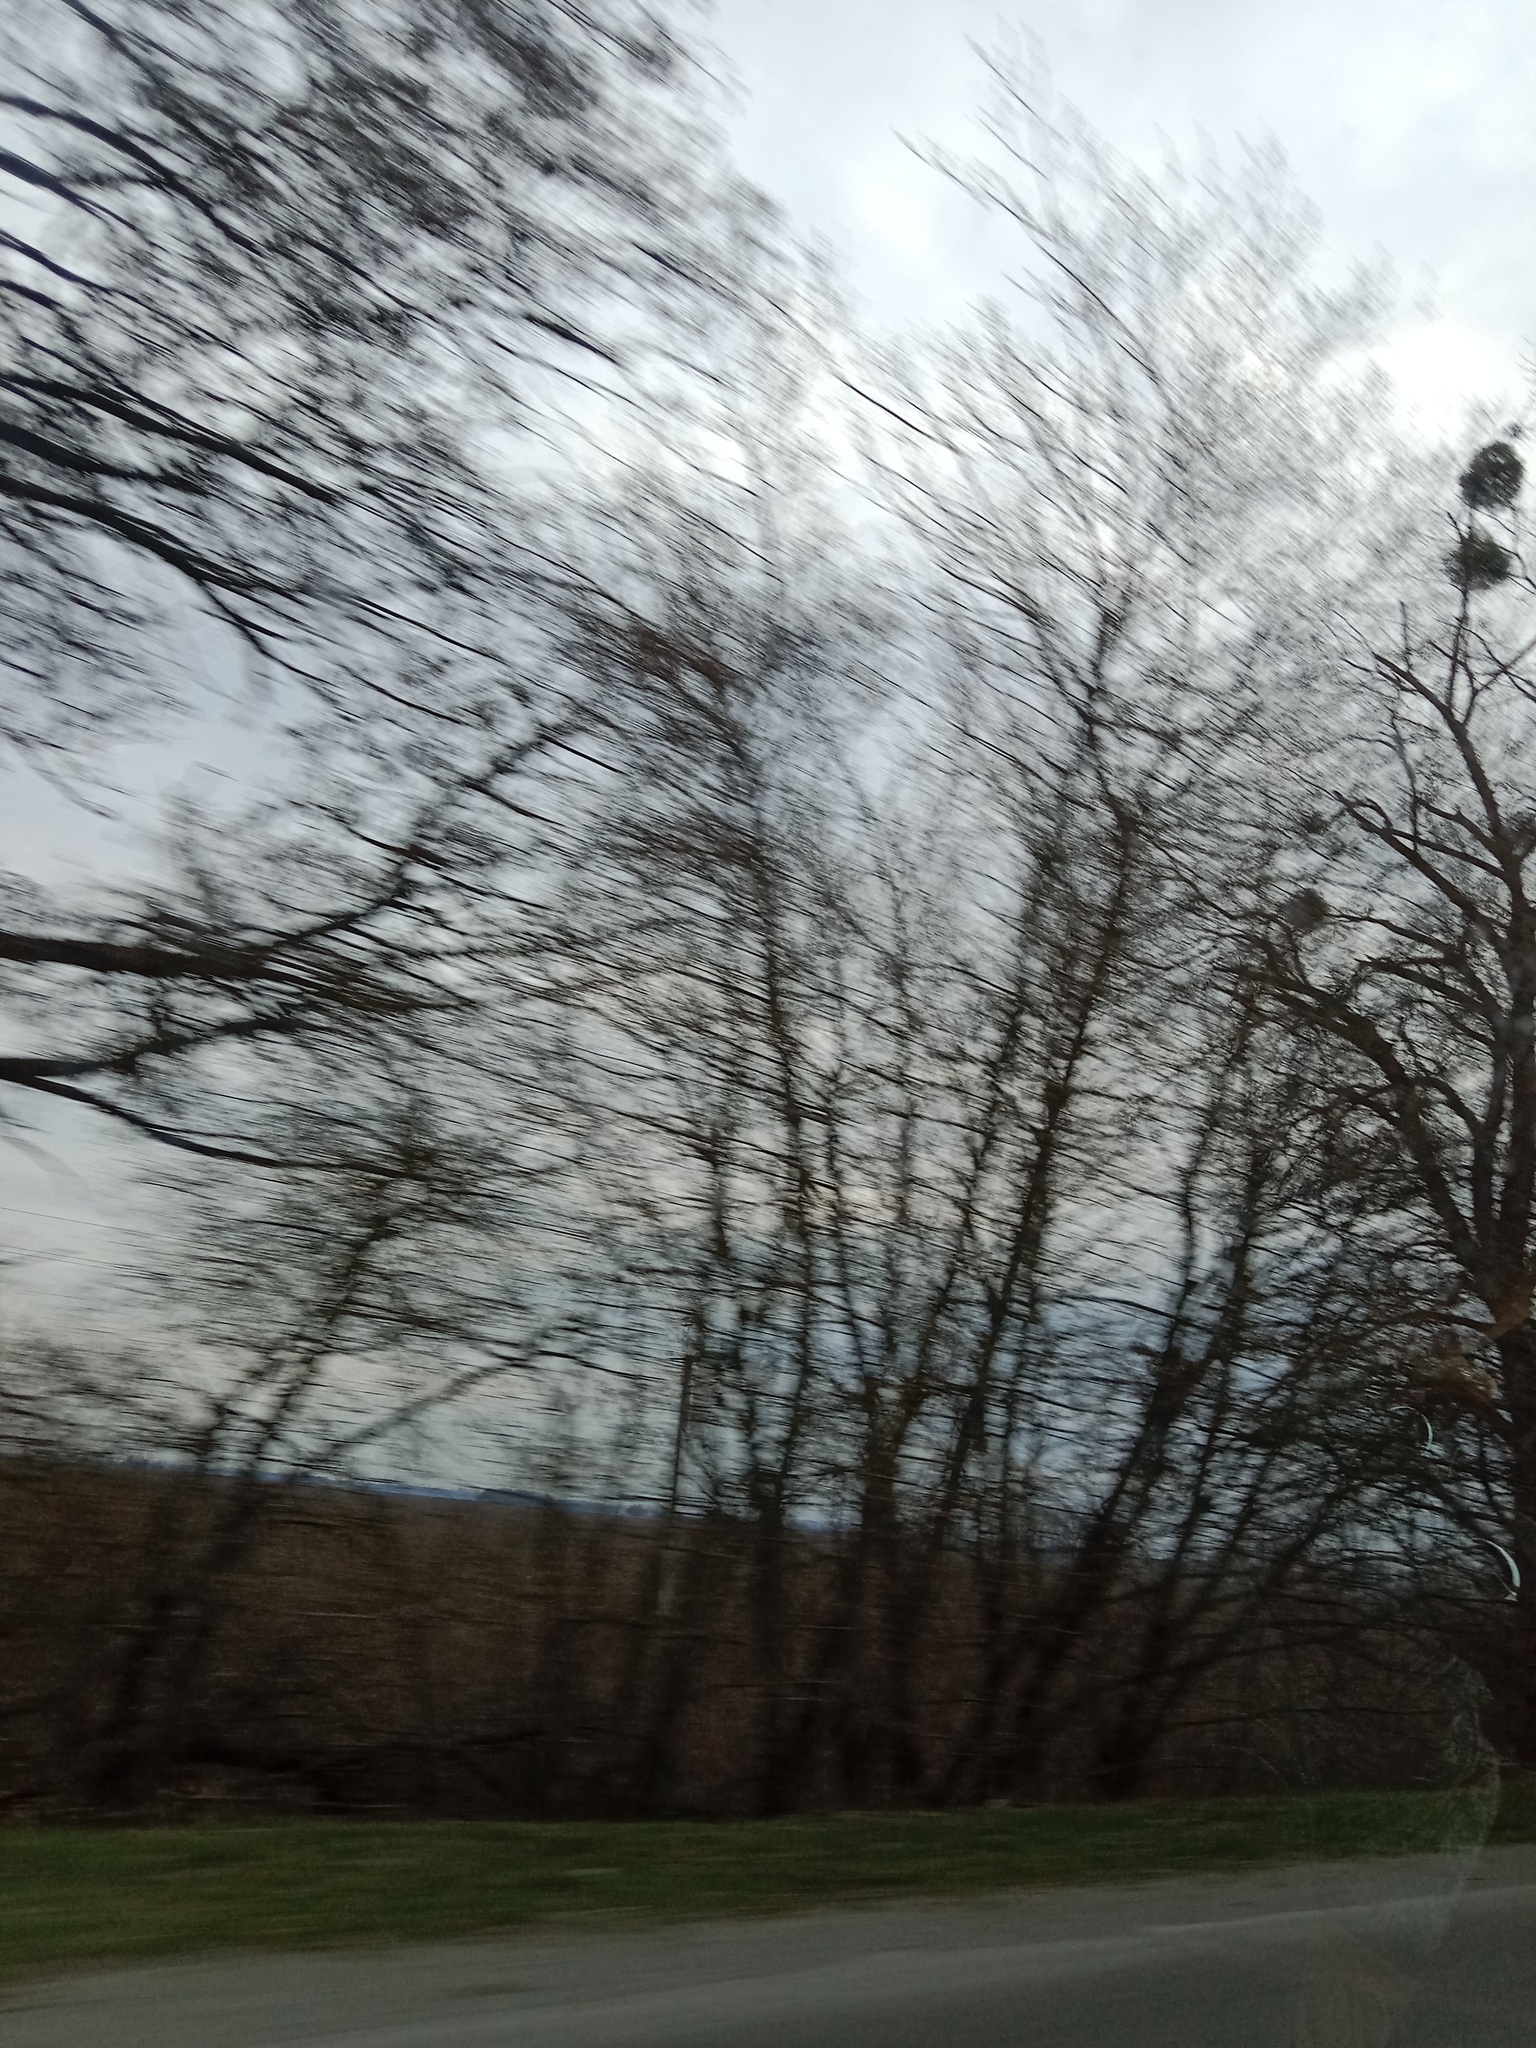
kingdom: Plantae
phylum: Tracheophyta
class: Magnoliopsida
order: Santalales
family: Viscaceae
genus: Viscum
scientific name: Viscum album
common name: Mistletoe
